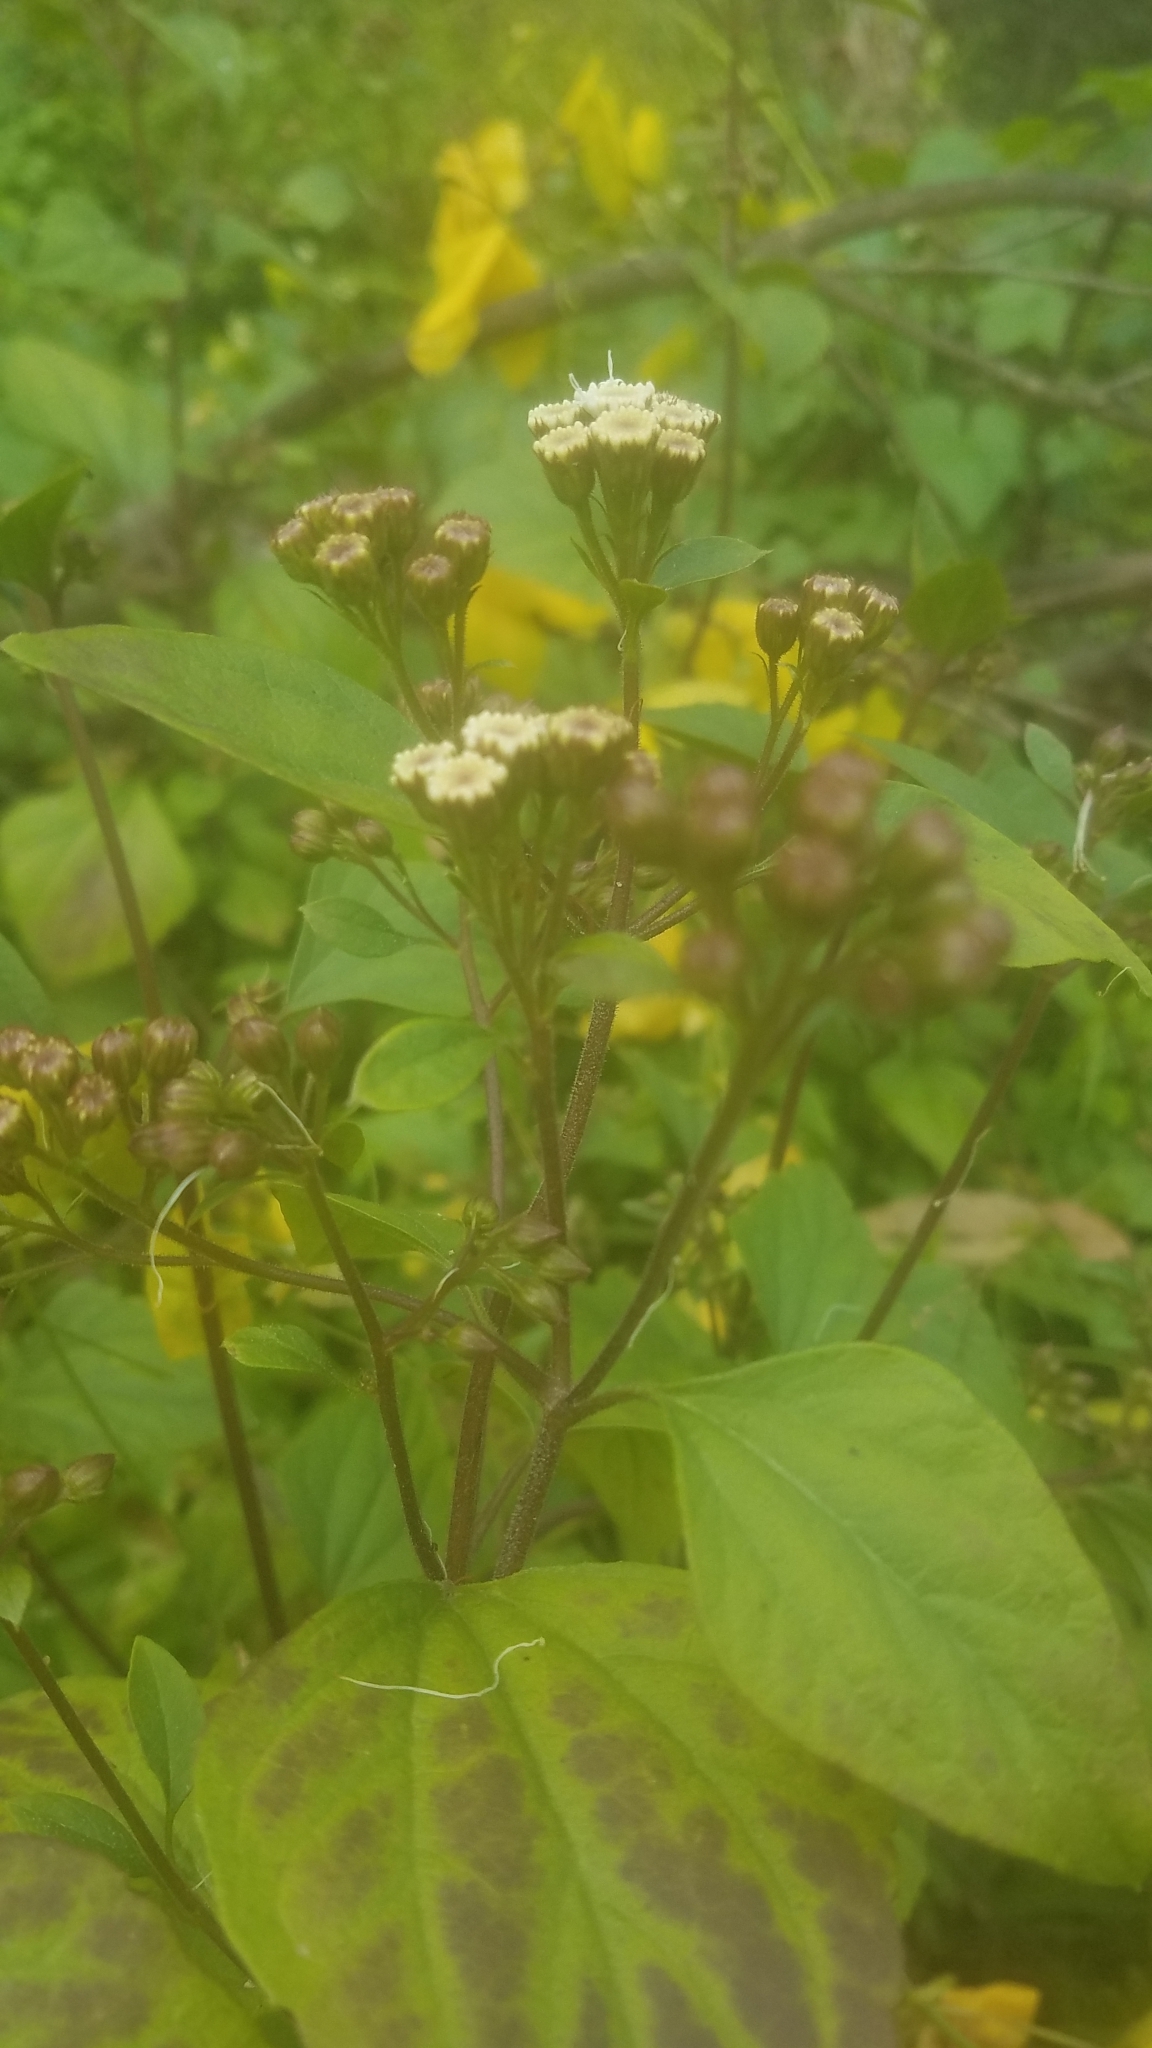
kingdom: Plantae
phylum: Tracheophyta
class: Magnoliopsida
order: Asterales
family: Asteraceae
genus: Ageratina
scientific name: Ageratina adenophora
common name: Sticky snakeroot
